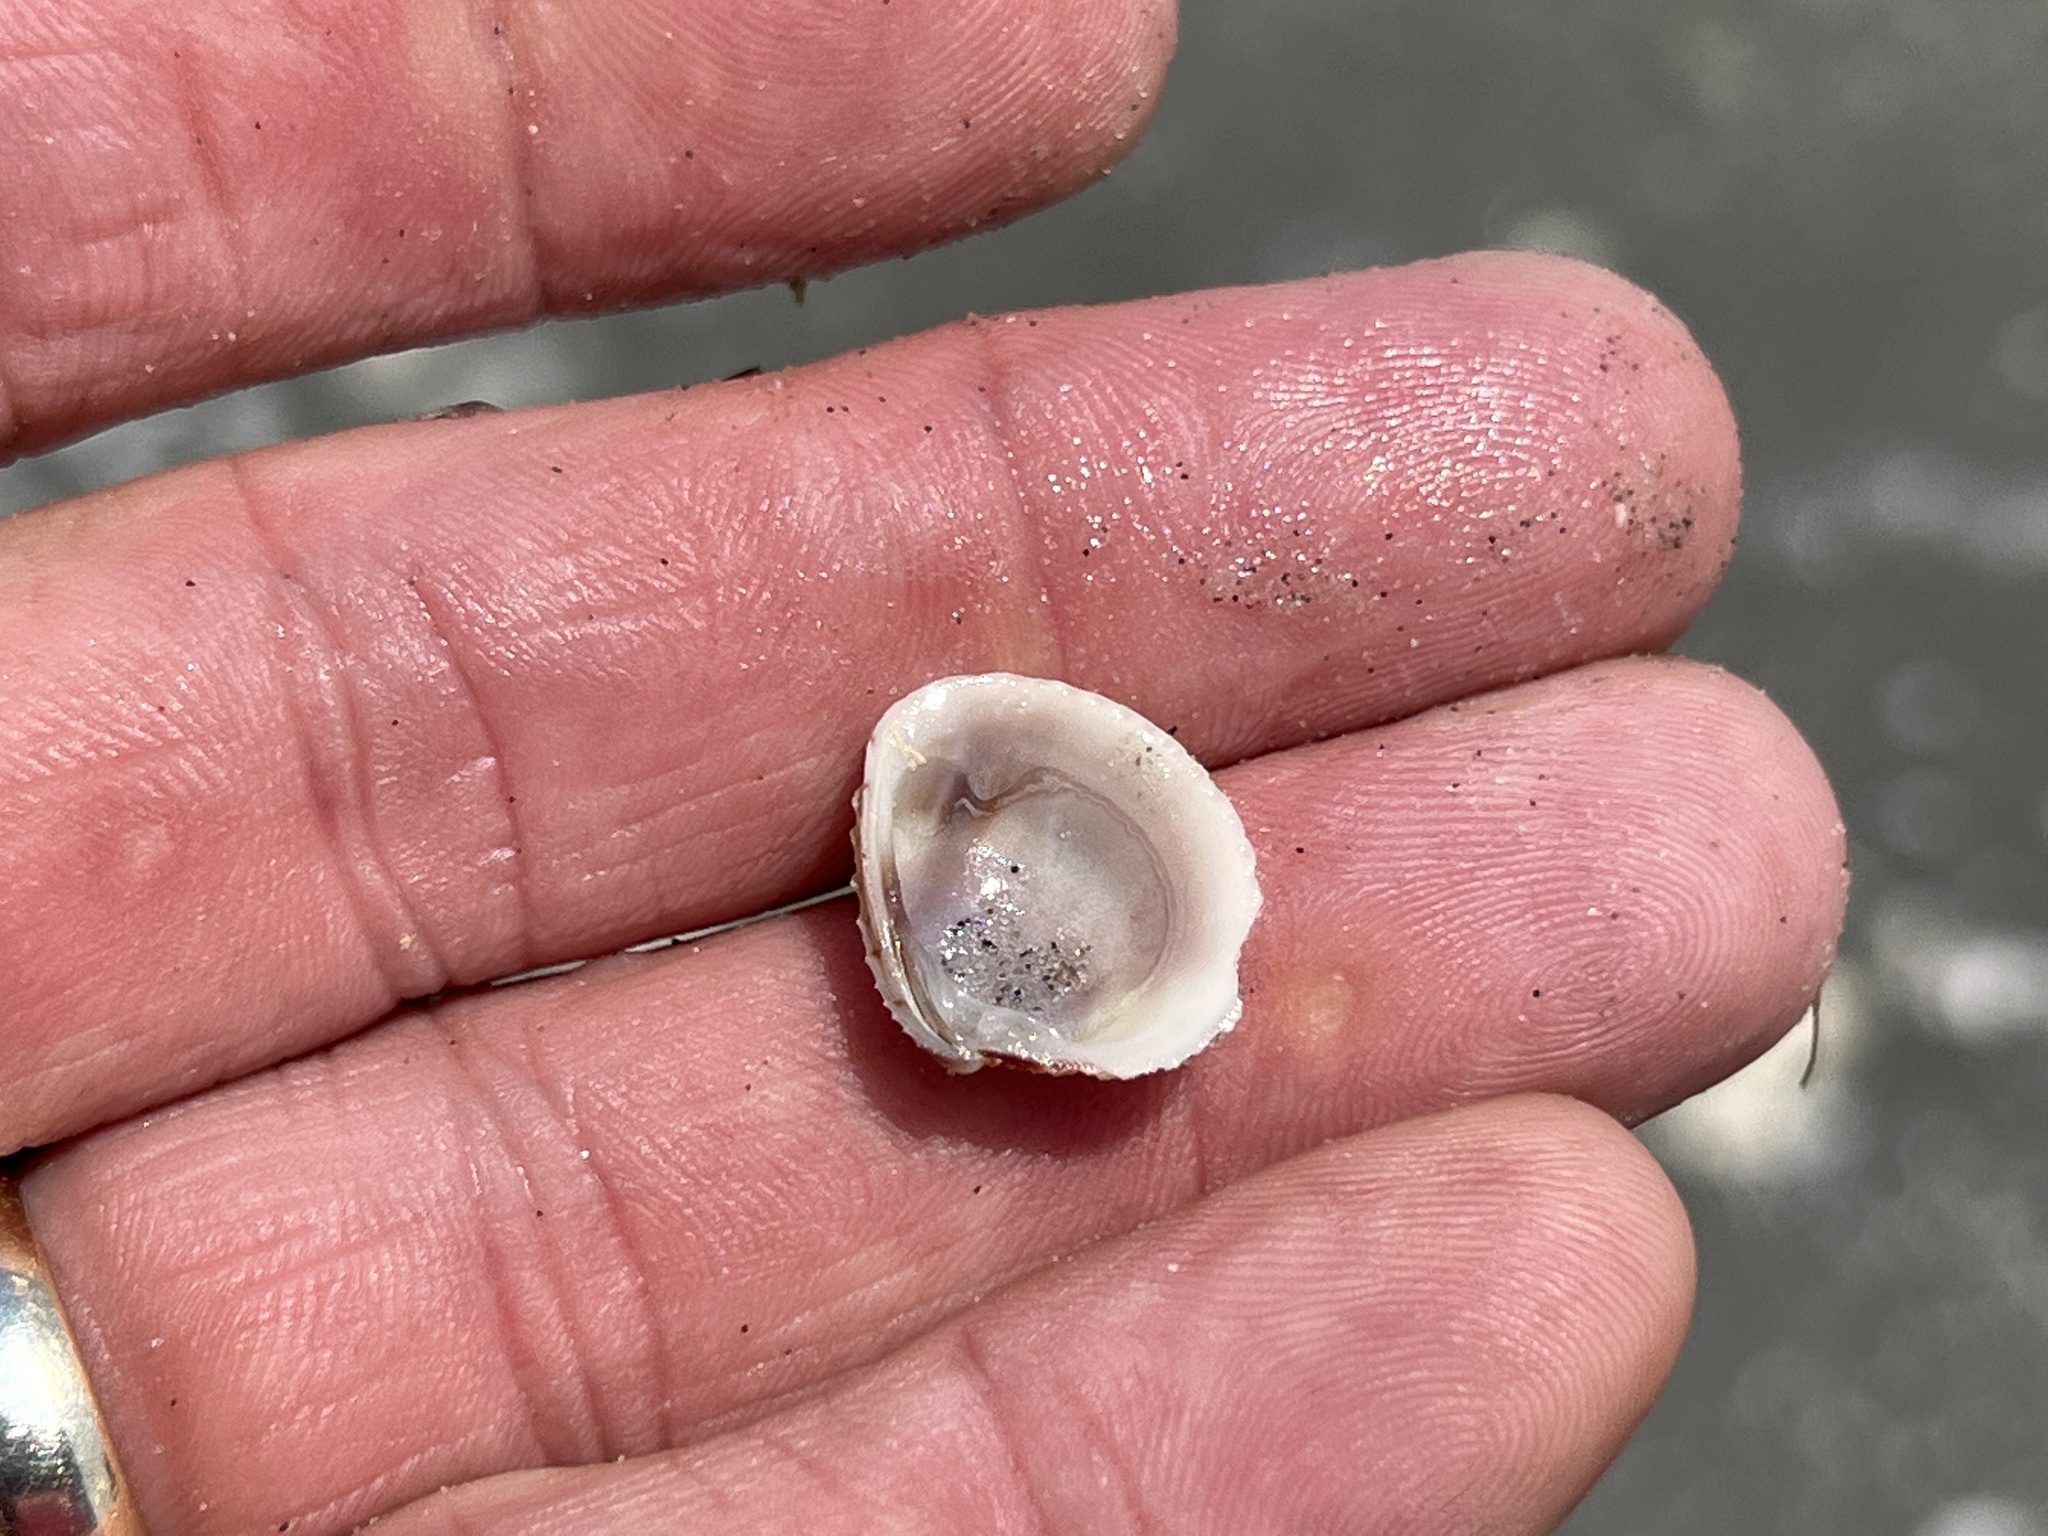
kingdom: Animalia
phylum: Mollusca
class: Bivalvia
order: Venerida
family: Veneridae
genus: Chione
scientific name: Chione elevata
